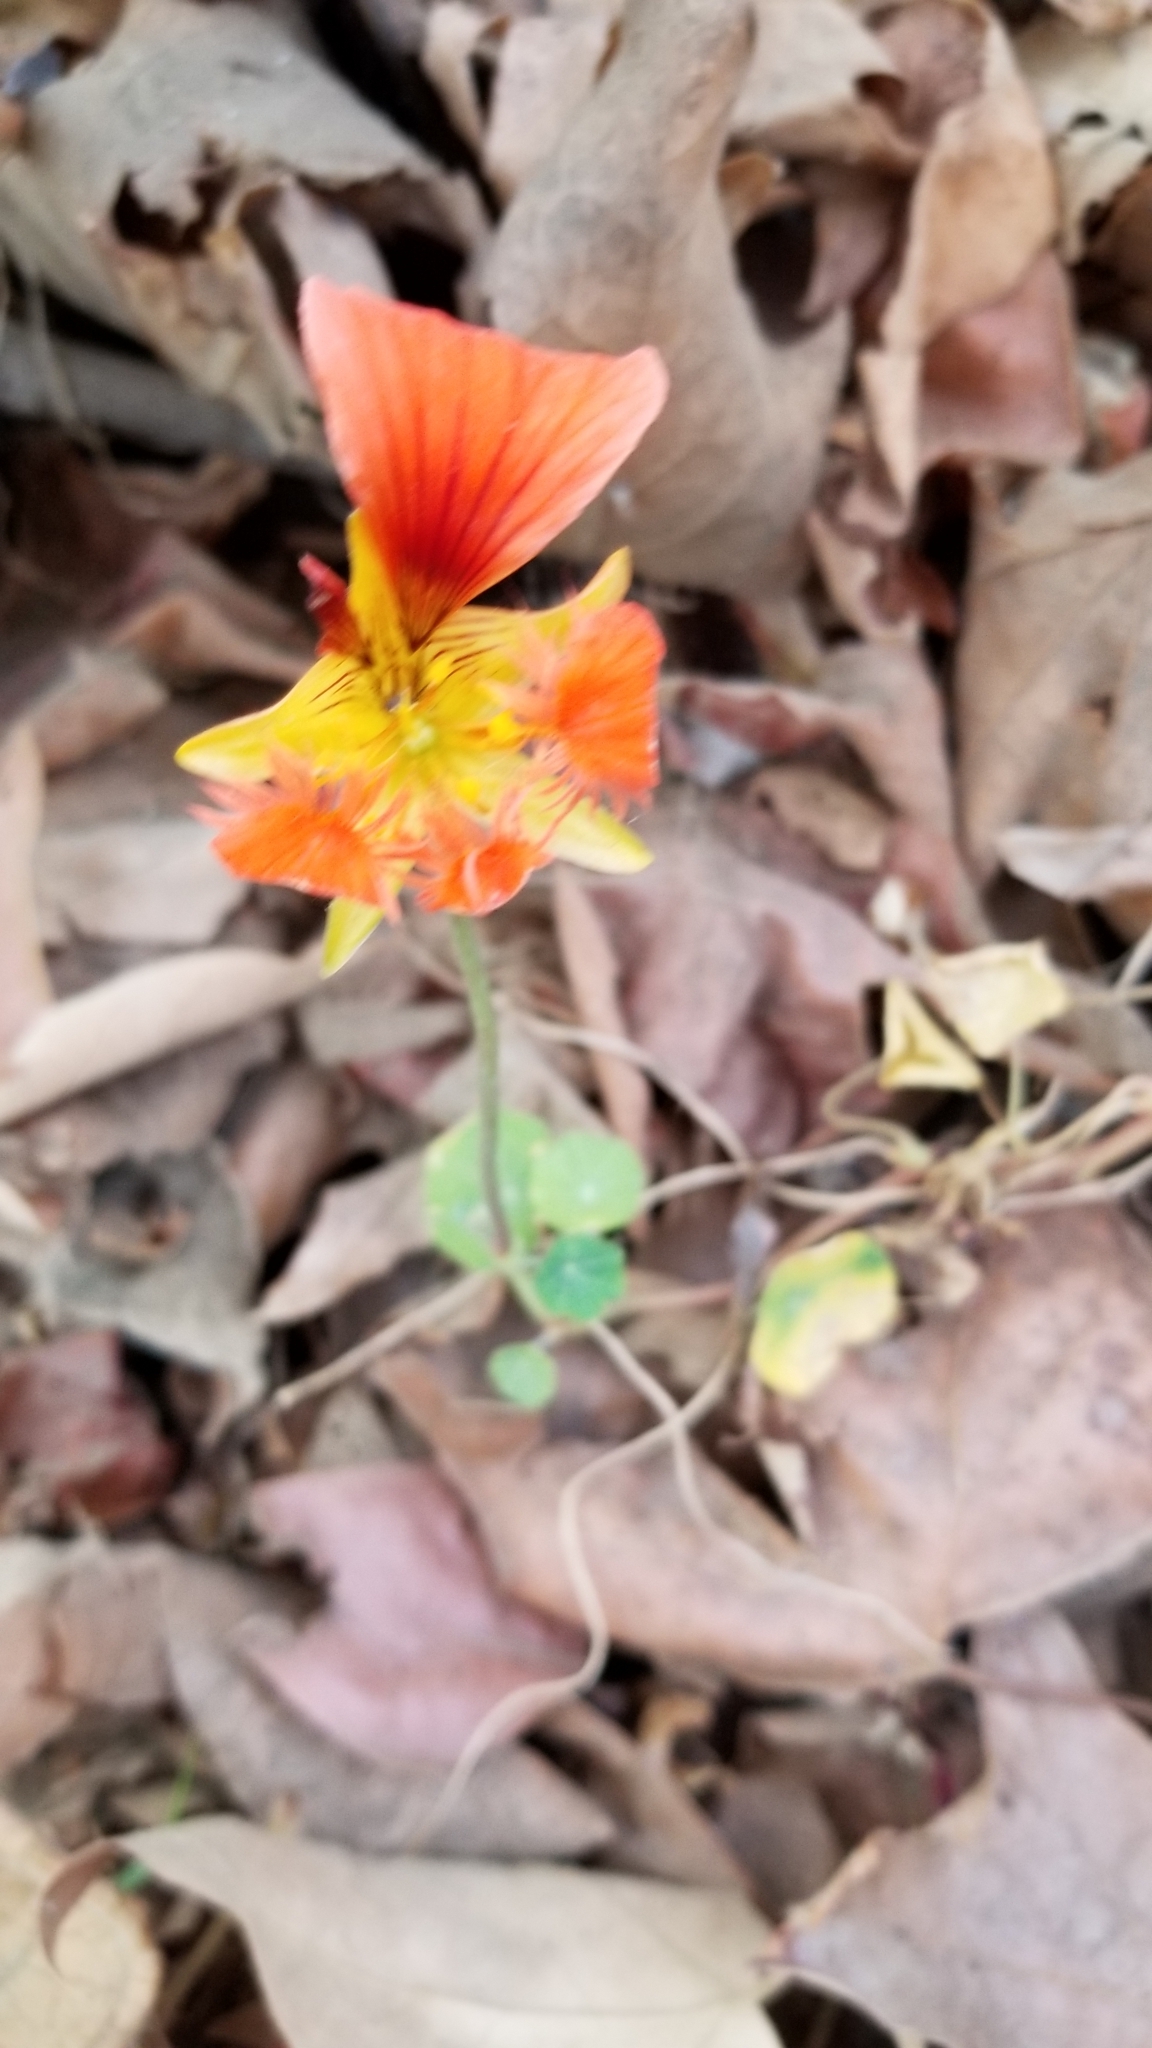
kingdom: Plantae
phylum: Tracheophyta
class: Magnoliopsida
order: Brassicales
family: Tropaeolaceae
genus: Tropaeolum
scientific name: Tropaeolum majus
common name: Nasturtium
